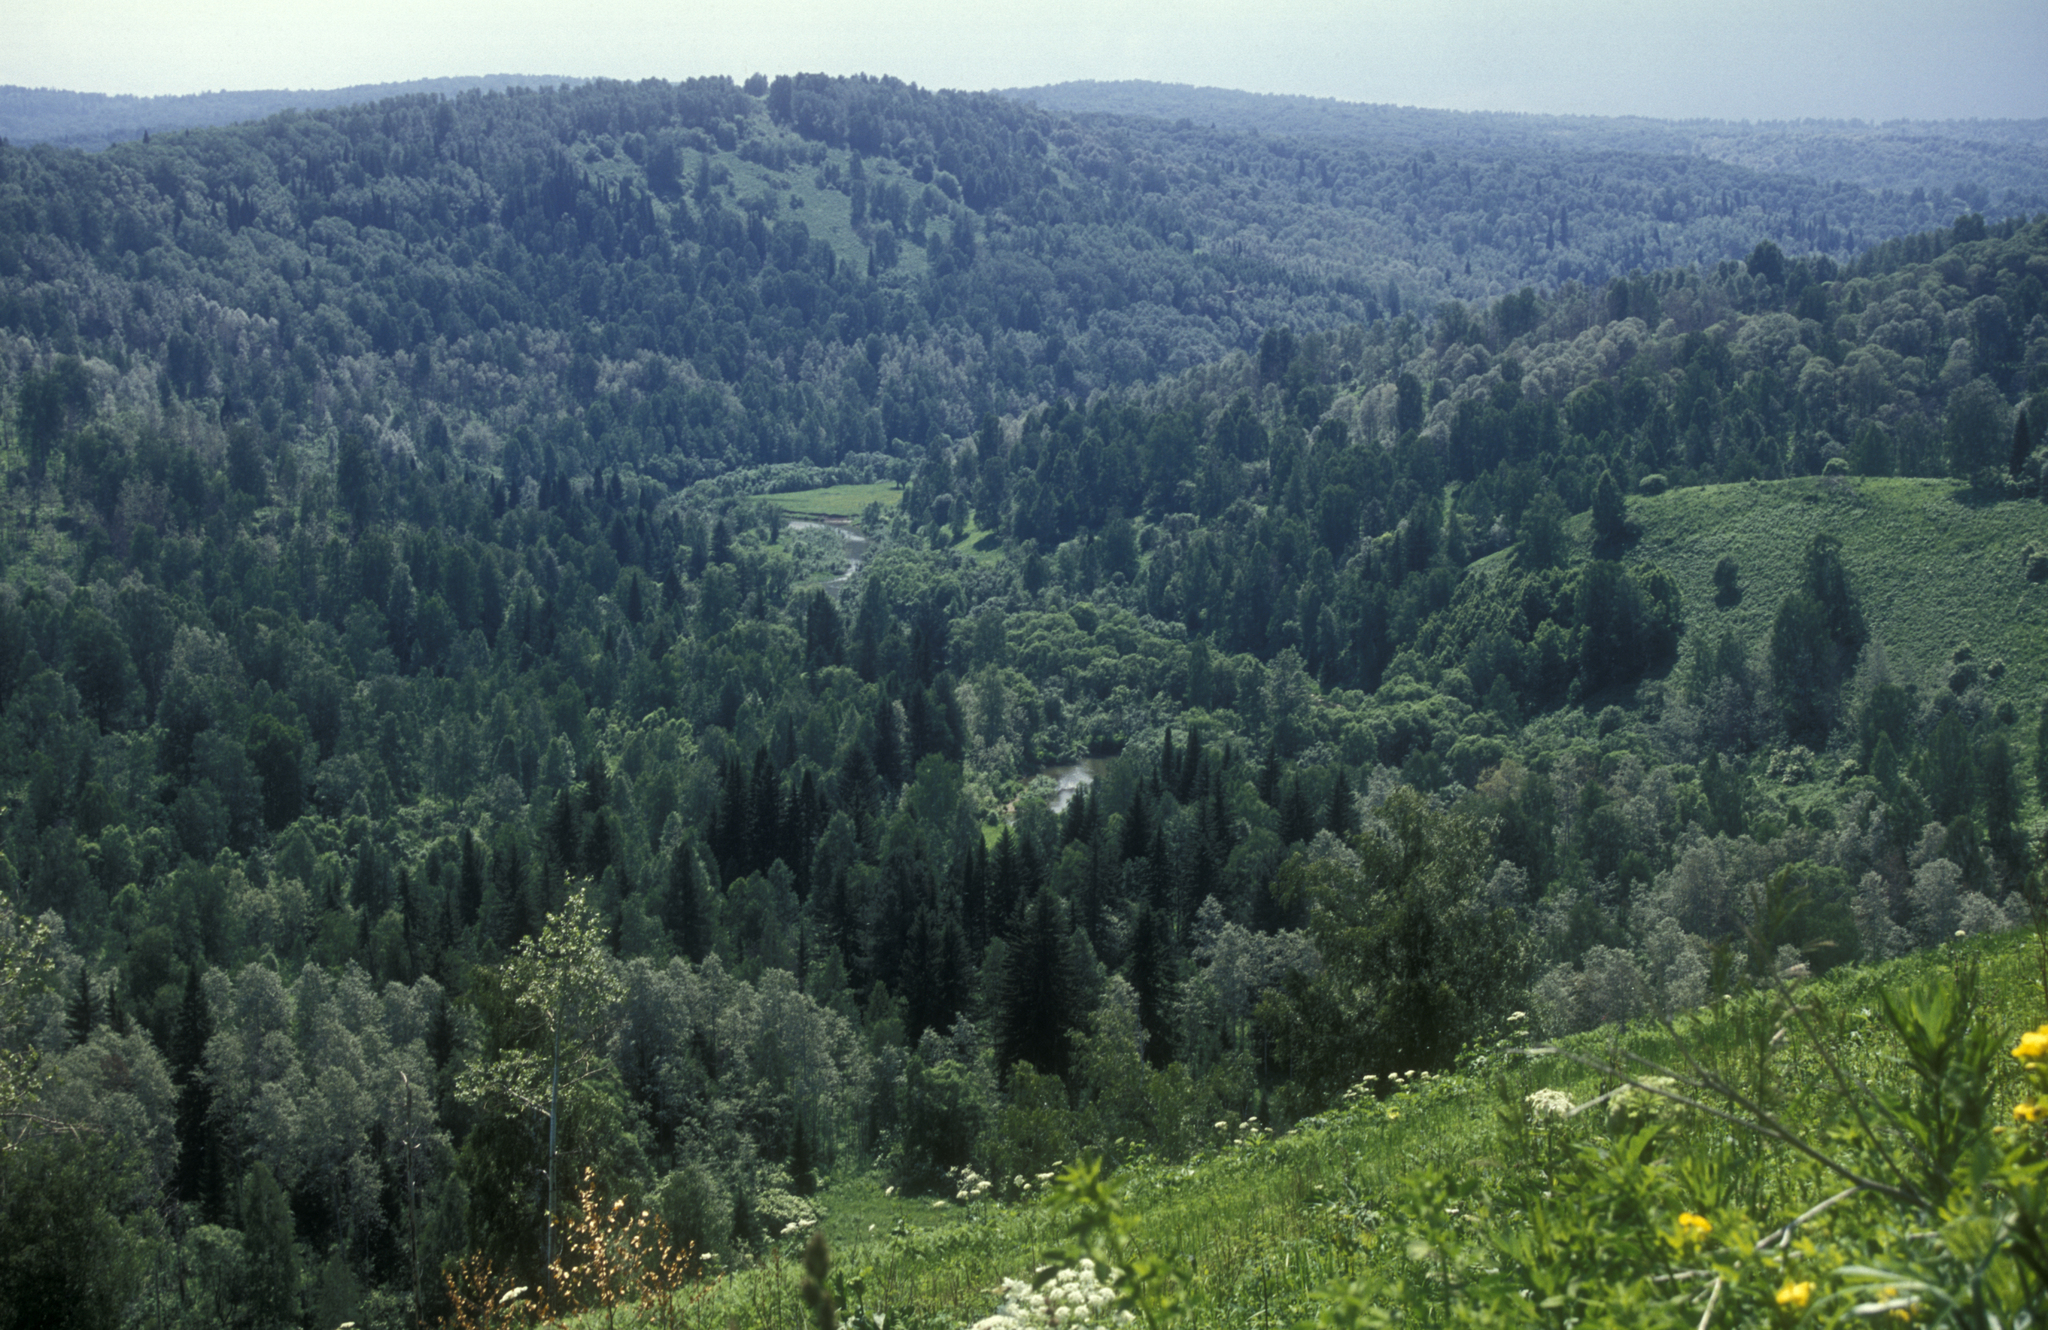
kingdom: Plantae
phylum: Tracheophyta
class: Pinopsida
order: Pinales
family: Pinaceae
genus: Abies
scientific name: Abies sibirica
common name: Siberian fir
